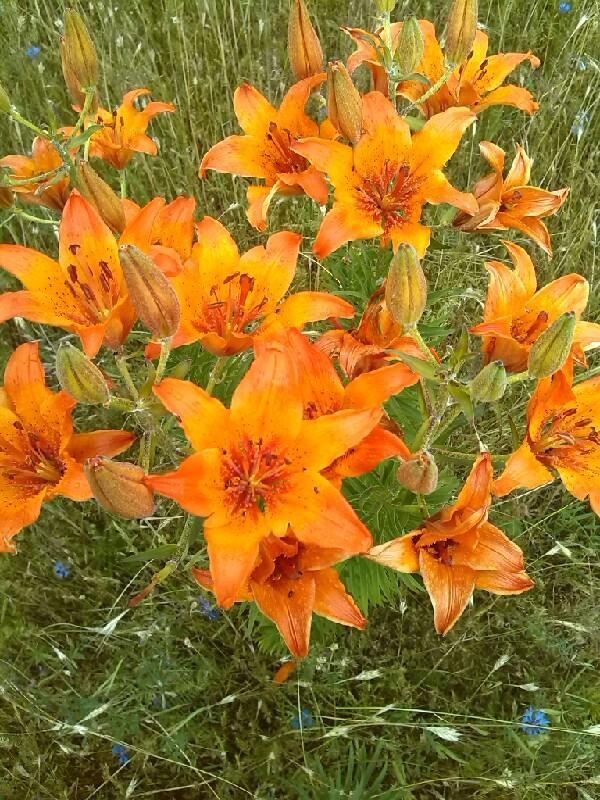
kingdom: Plantae
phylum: Tracheophyta
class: Liliopsida
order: Liliales
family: Liliaceae
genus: Lilium
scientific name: Lilium bulbiferum
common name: Orange lily
